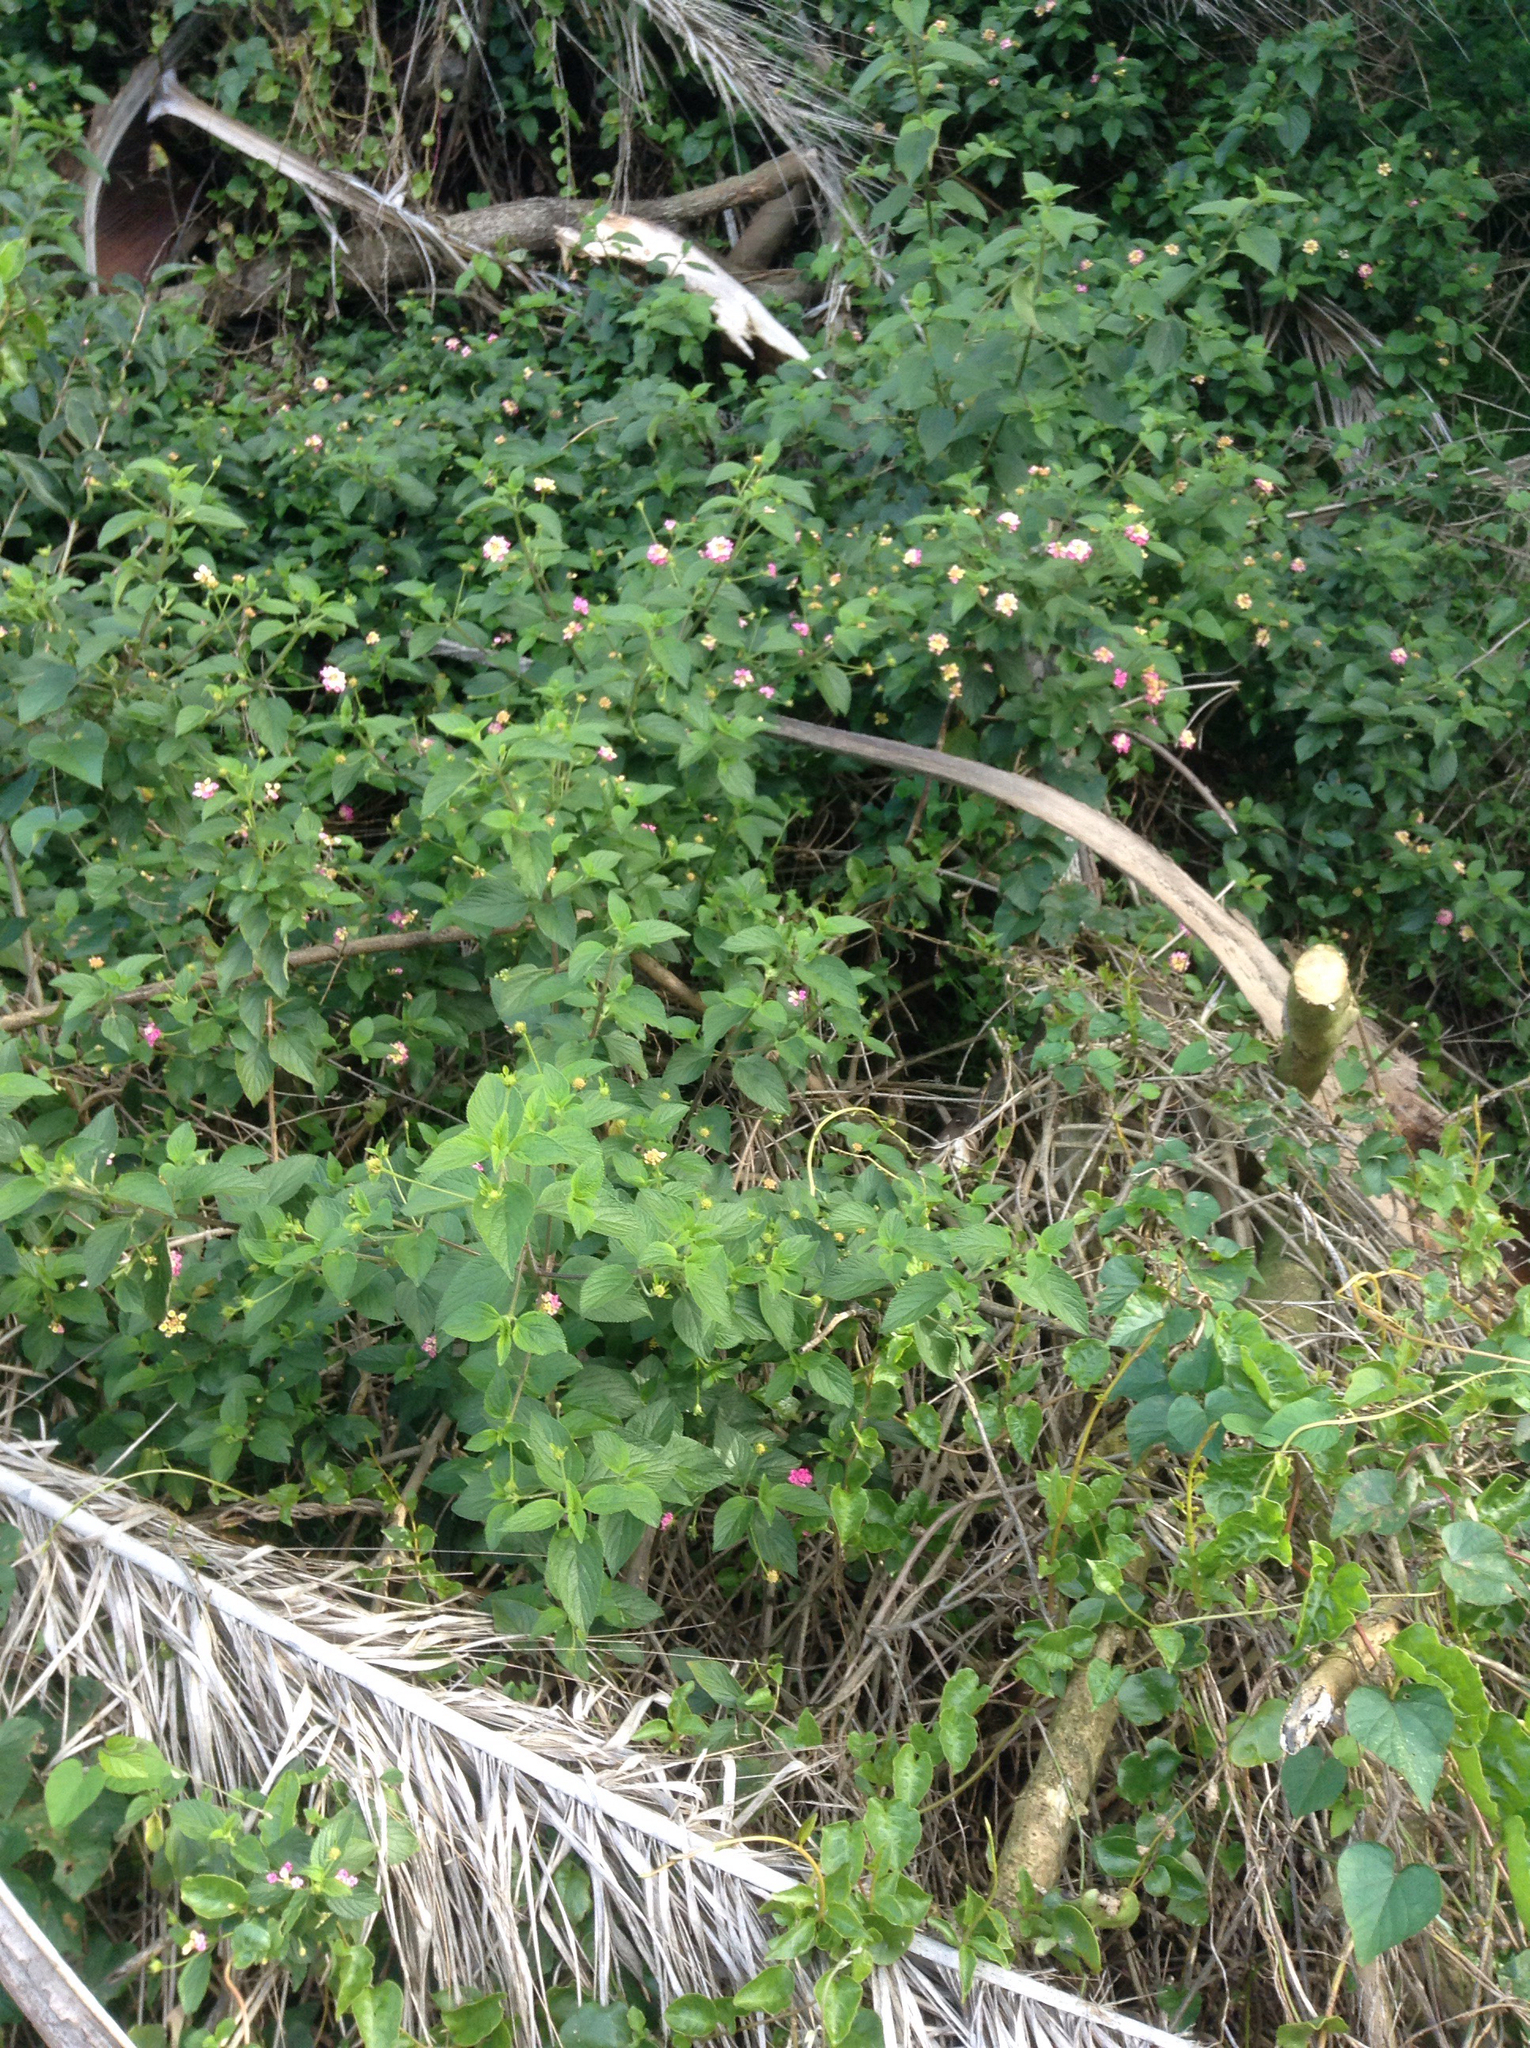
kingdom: Plantae
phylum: Tracheophyta
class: Magnoliopsida
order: Lamiales
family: Verbenaceae
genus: Lantana
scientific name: Lantana camara
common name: Lantana
